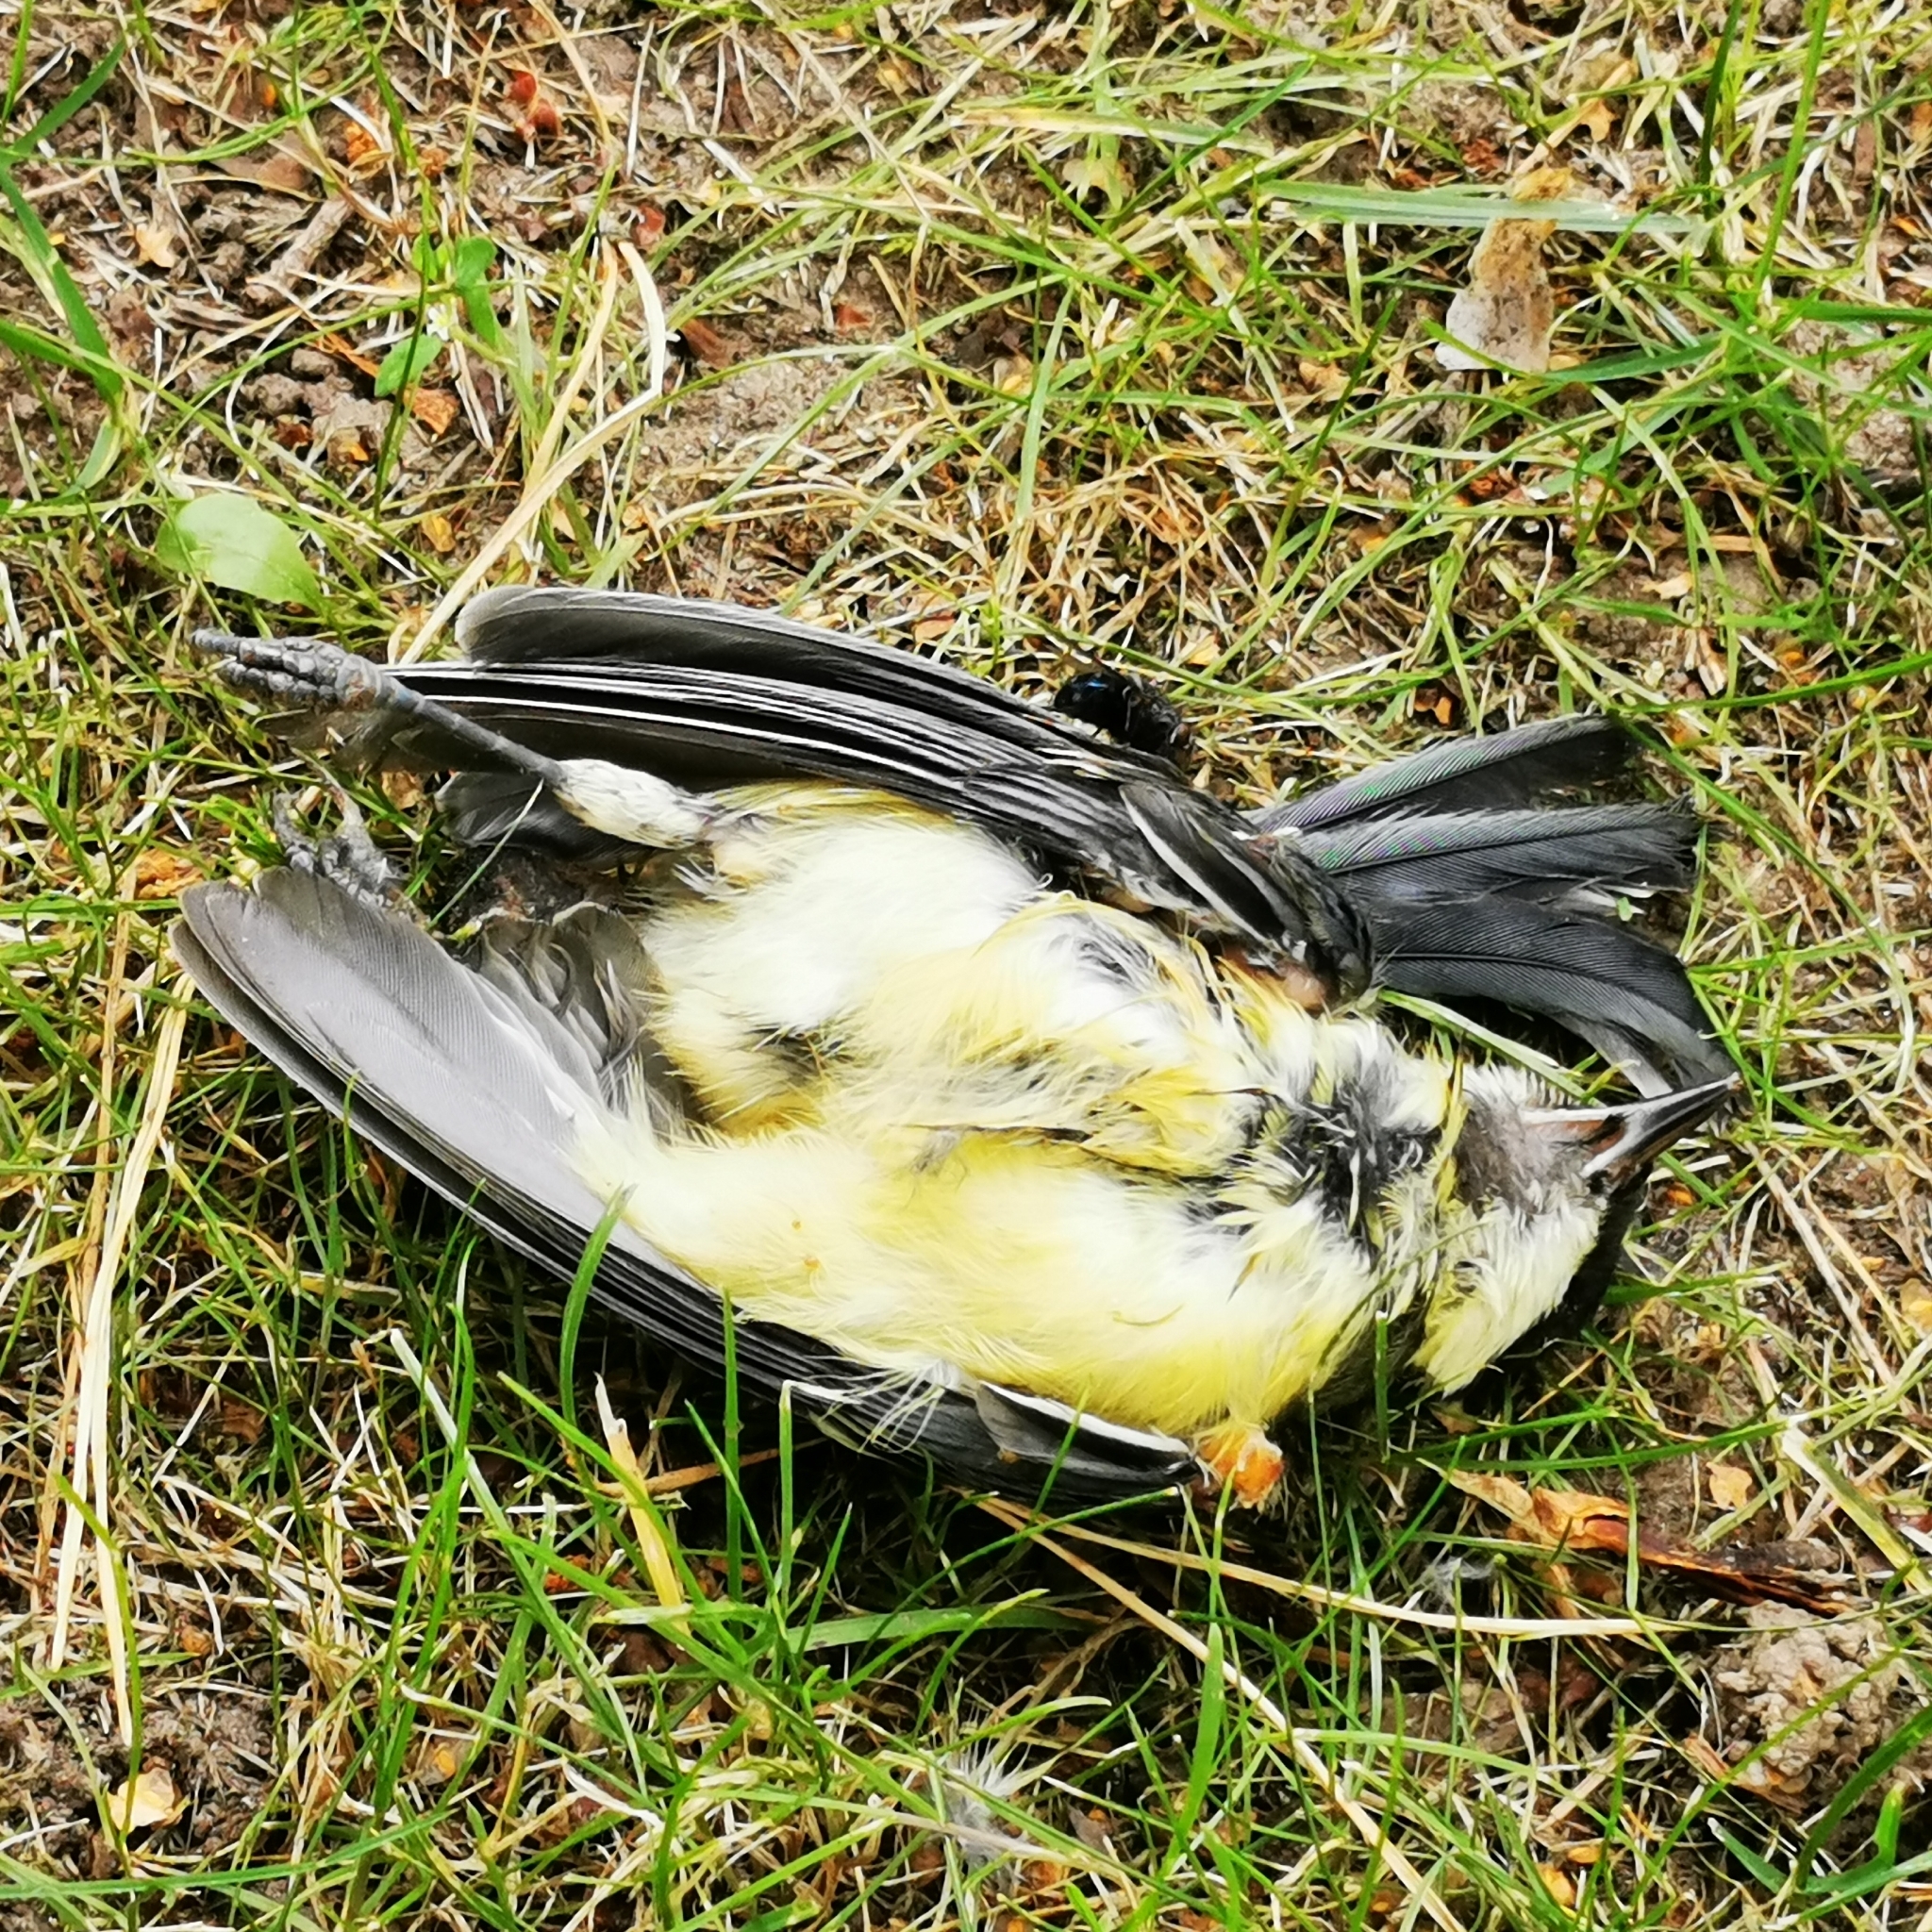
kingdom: Animalia
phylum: Chordata
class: Aves
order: Passeriformes
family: Paridae
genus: Parus
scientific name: Parus major
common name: Great tit
